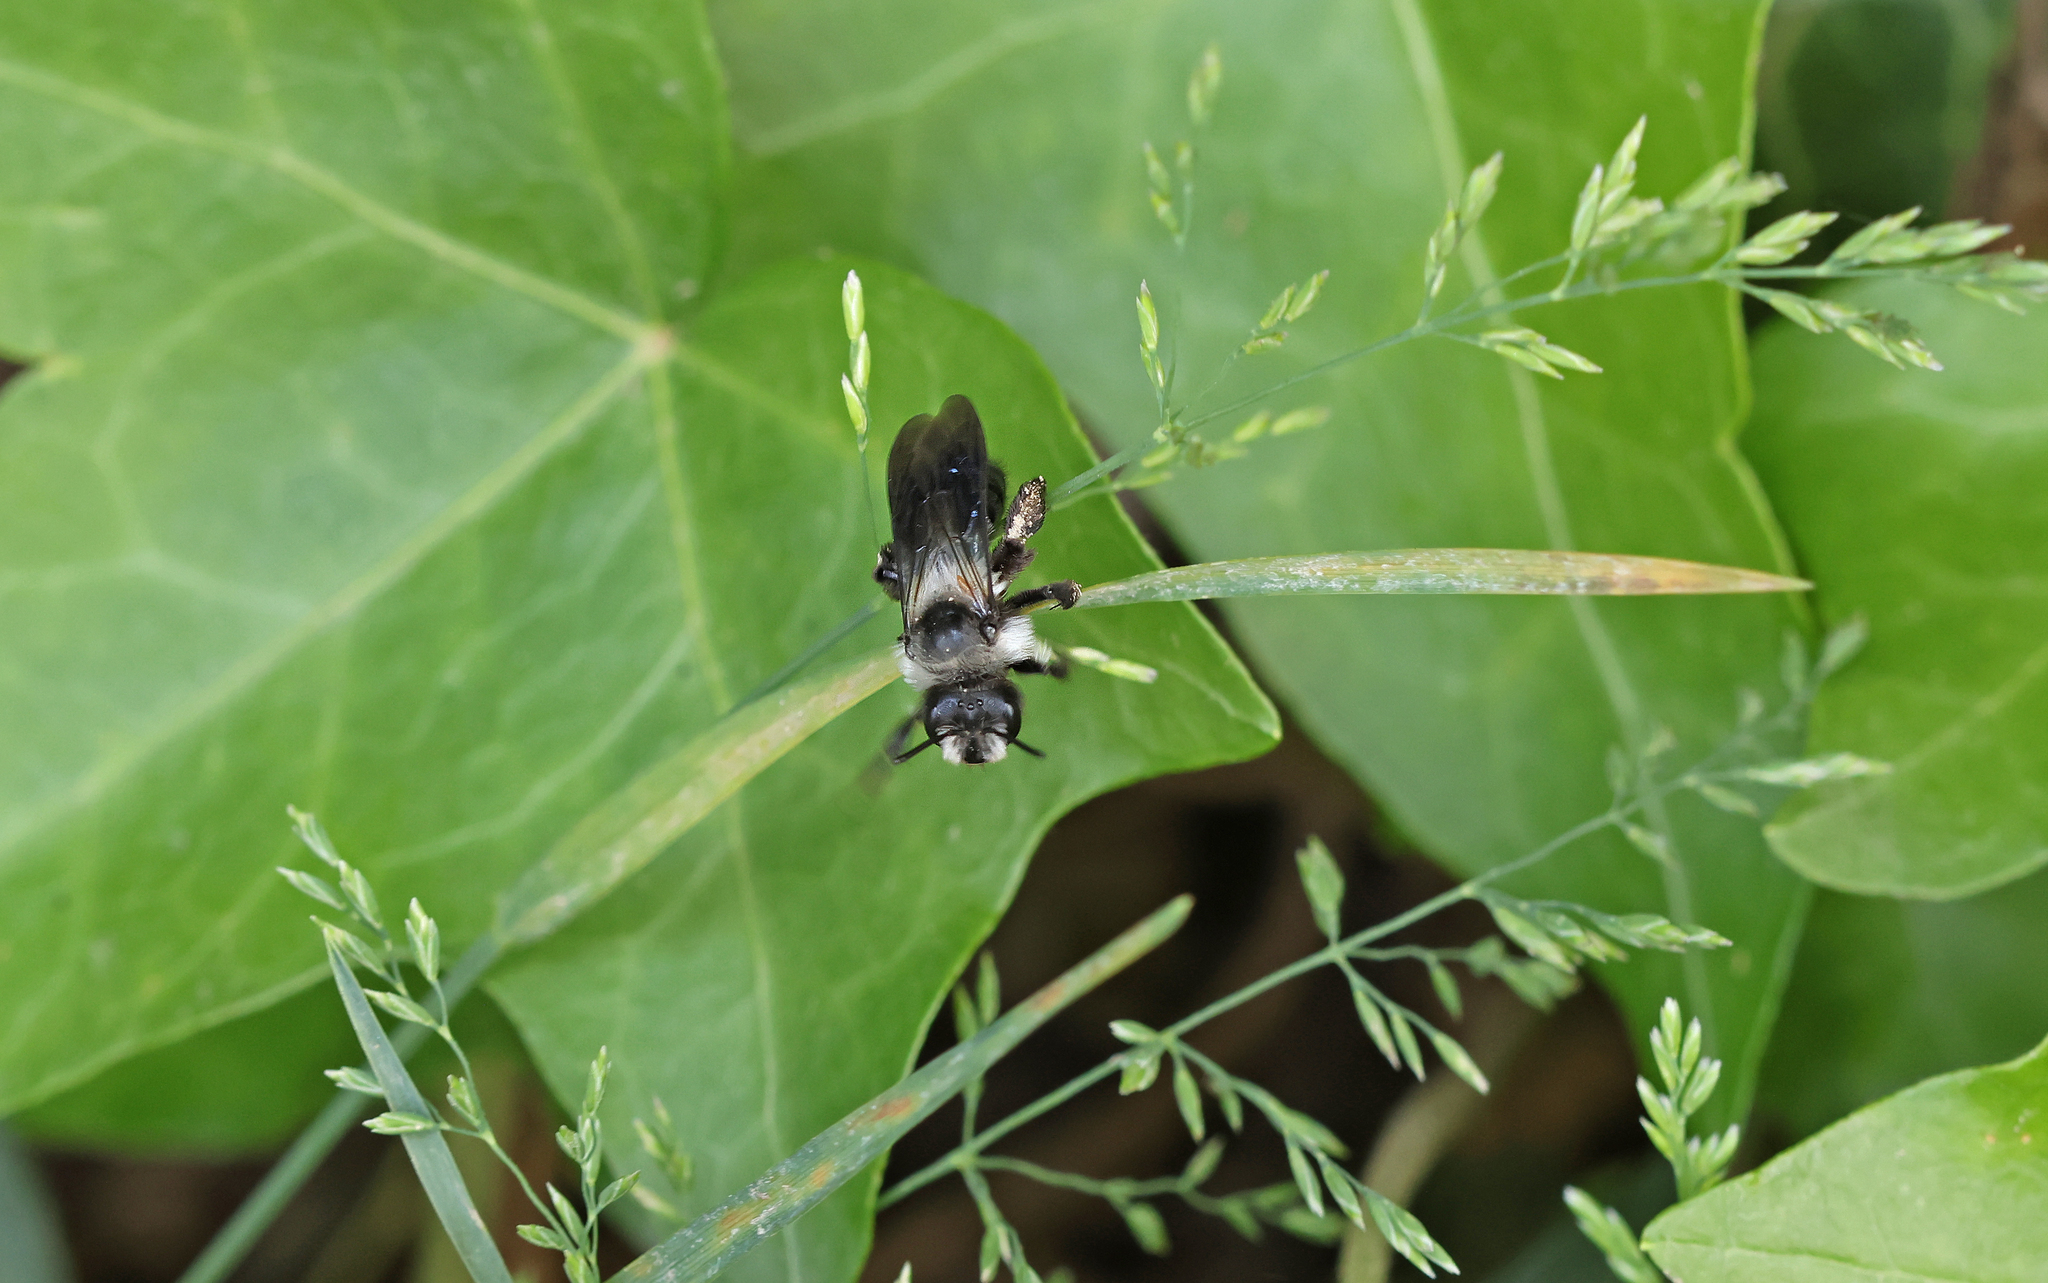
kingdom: Animalia
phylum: Arthropoda
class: Insecta
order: Hymenoptera
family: Andrenidae
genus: Andrena
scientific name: Andrena cineraria
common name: Ashy mining bee
